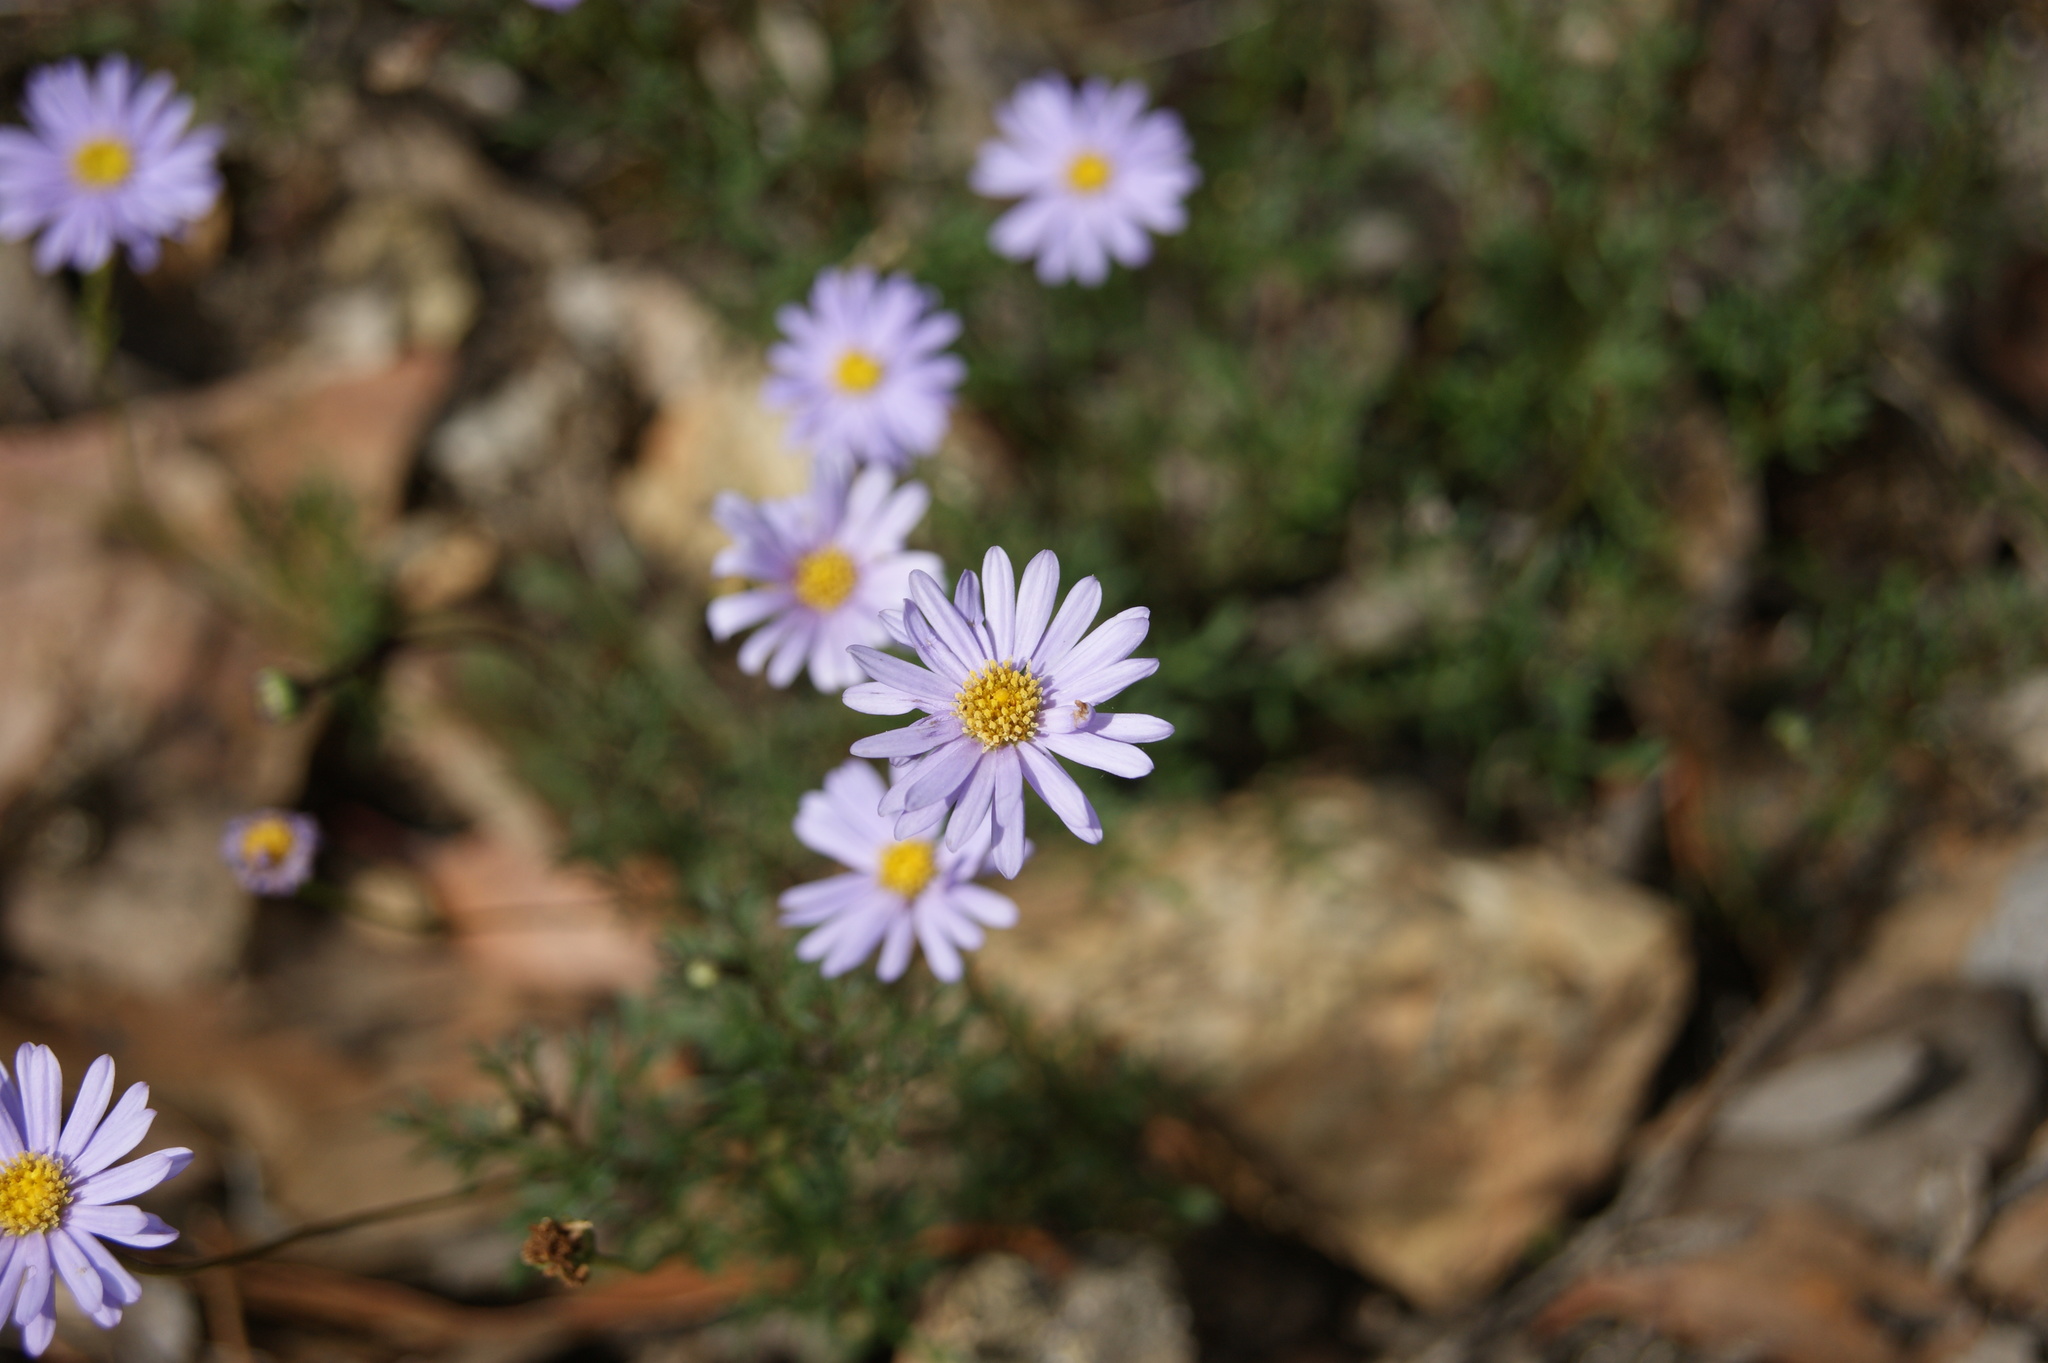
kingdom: Plantae
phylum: Tracheophyta
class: Magnoliopsida
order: Asterales
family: Asteraceae
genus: Brachyscome
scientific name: Brachyscome multifida
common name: Cut-leaf daisy
